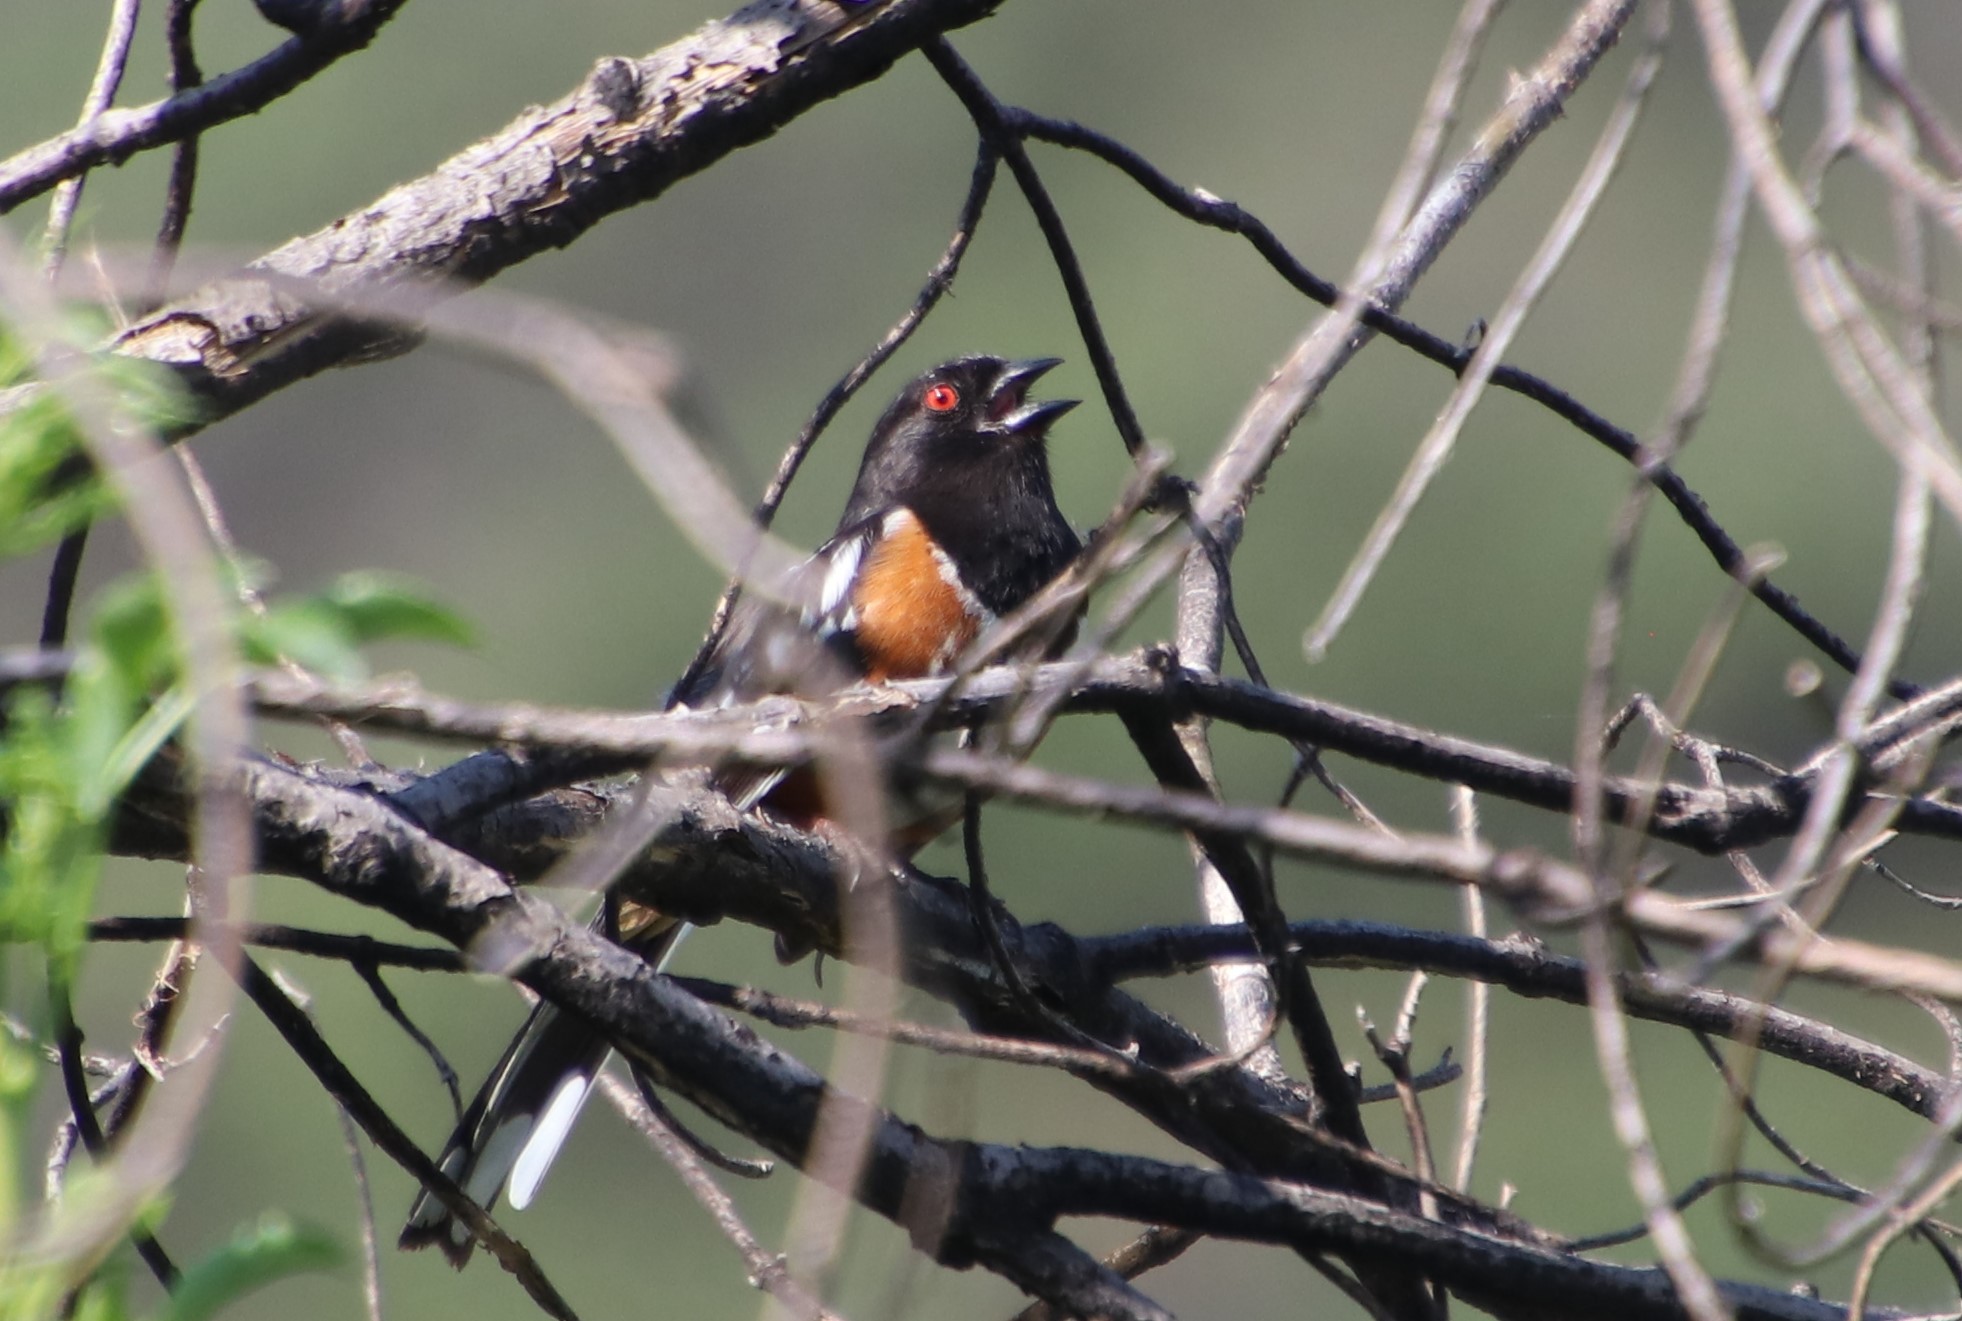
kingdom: Animalia
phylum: Chordata
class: Aves
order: Passeriformes
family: Passerellidae
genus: Pipilo
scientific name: Pipilo maculatus
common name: Spotted towhee
